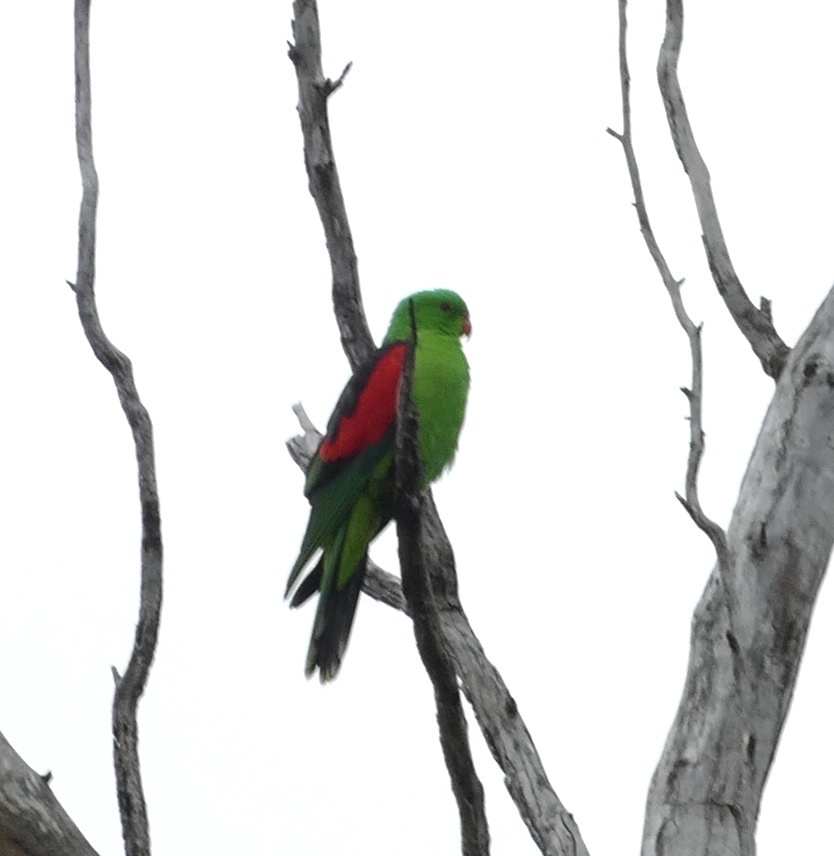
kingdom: Animalia
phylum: Chordata
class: Aves
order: Psittaciformes
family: Psittacidae
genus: Aprosmictus
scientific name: Aprosmictus erythropterus
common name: Red-winged parrot
